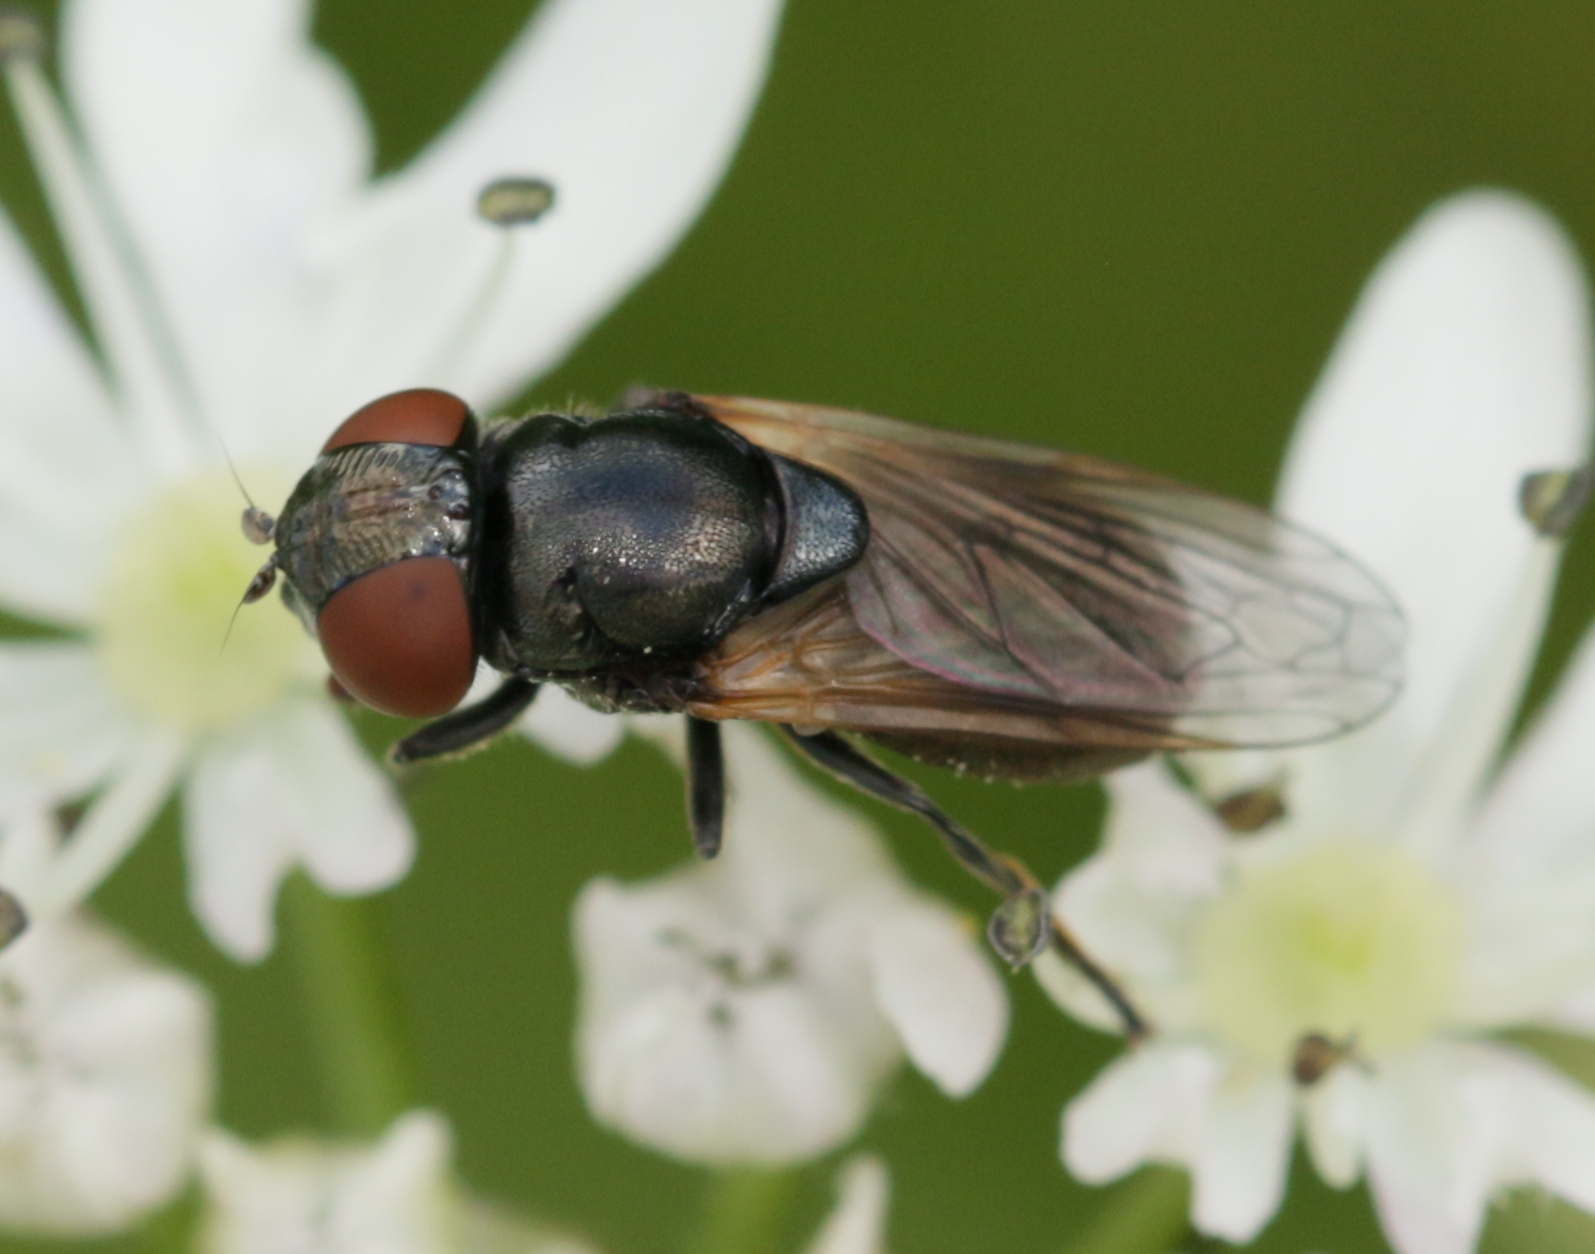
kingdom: Animalia
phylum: Arthropoda
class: Insecta
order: Diptera
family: Syrphidae
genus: Chrysogaster
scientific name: Chrysogaster cemiteriorum
